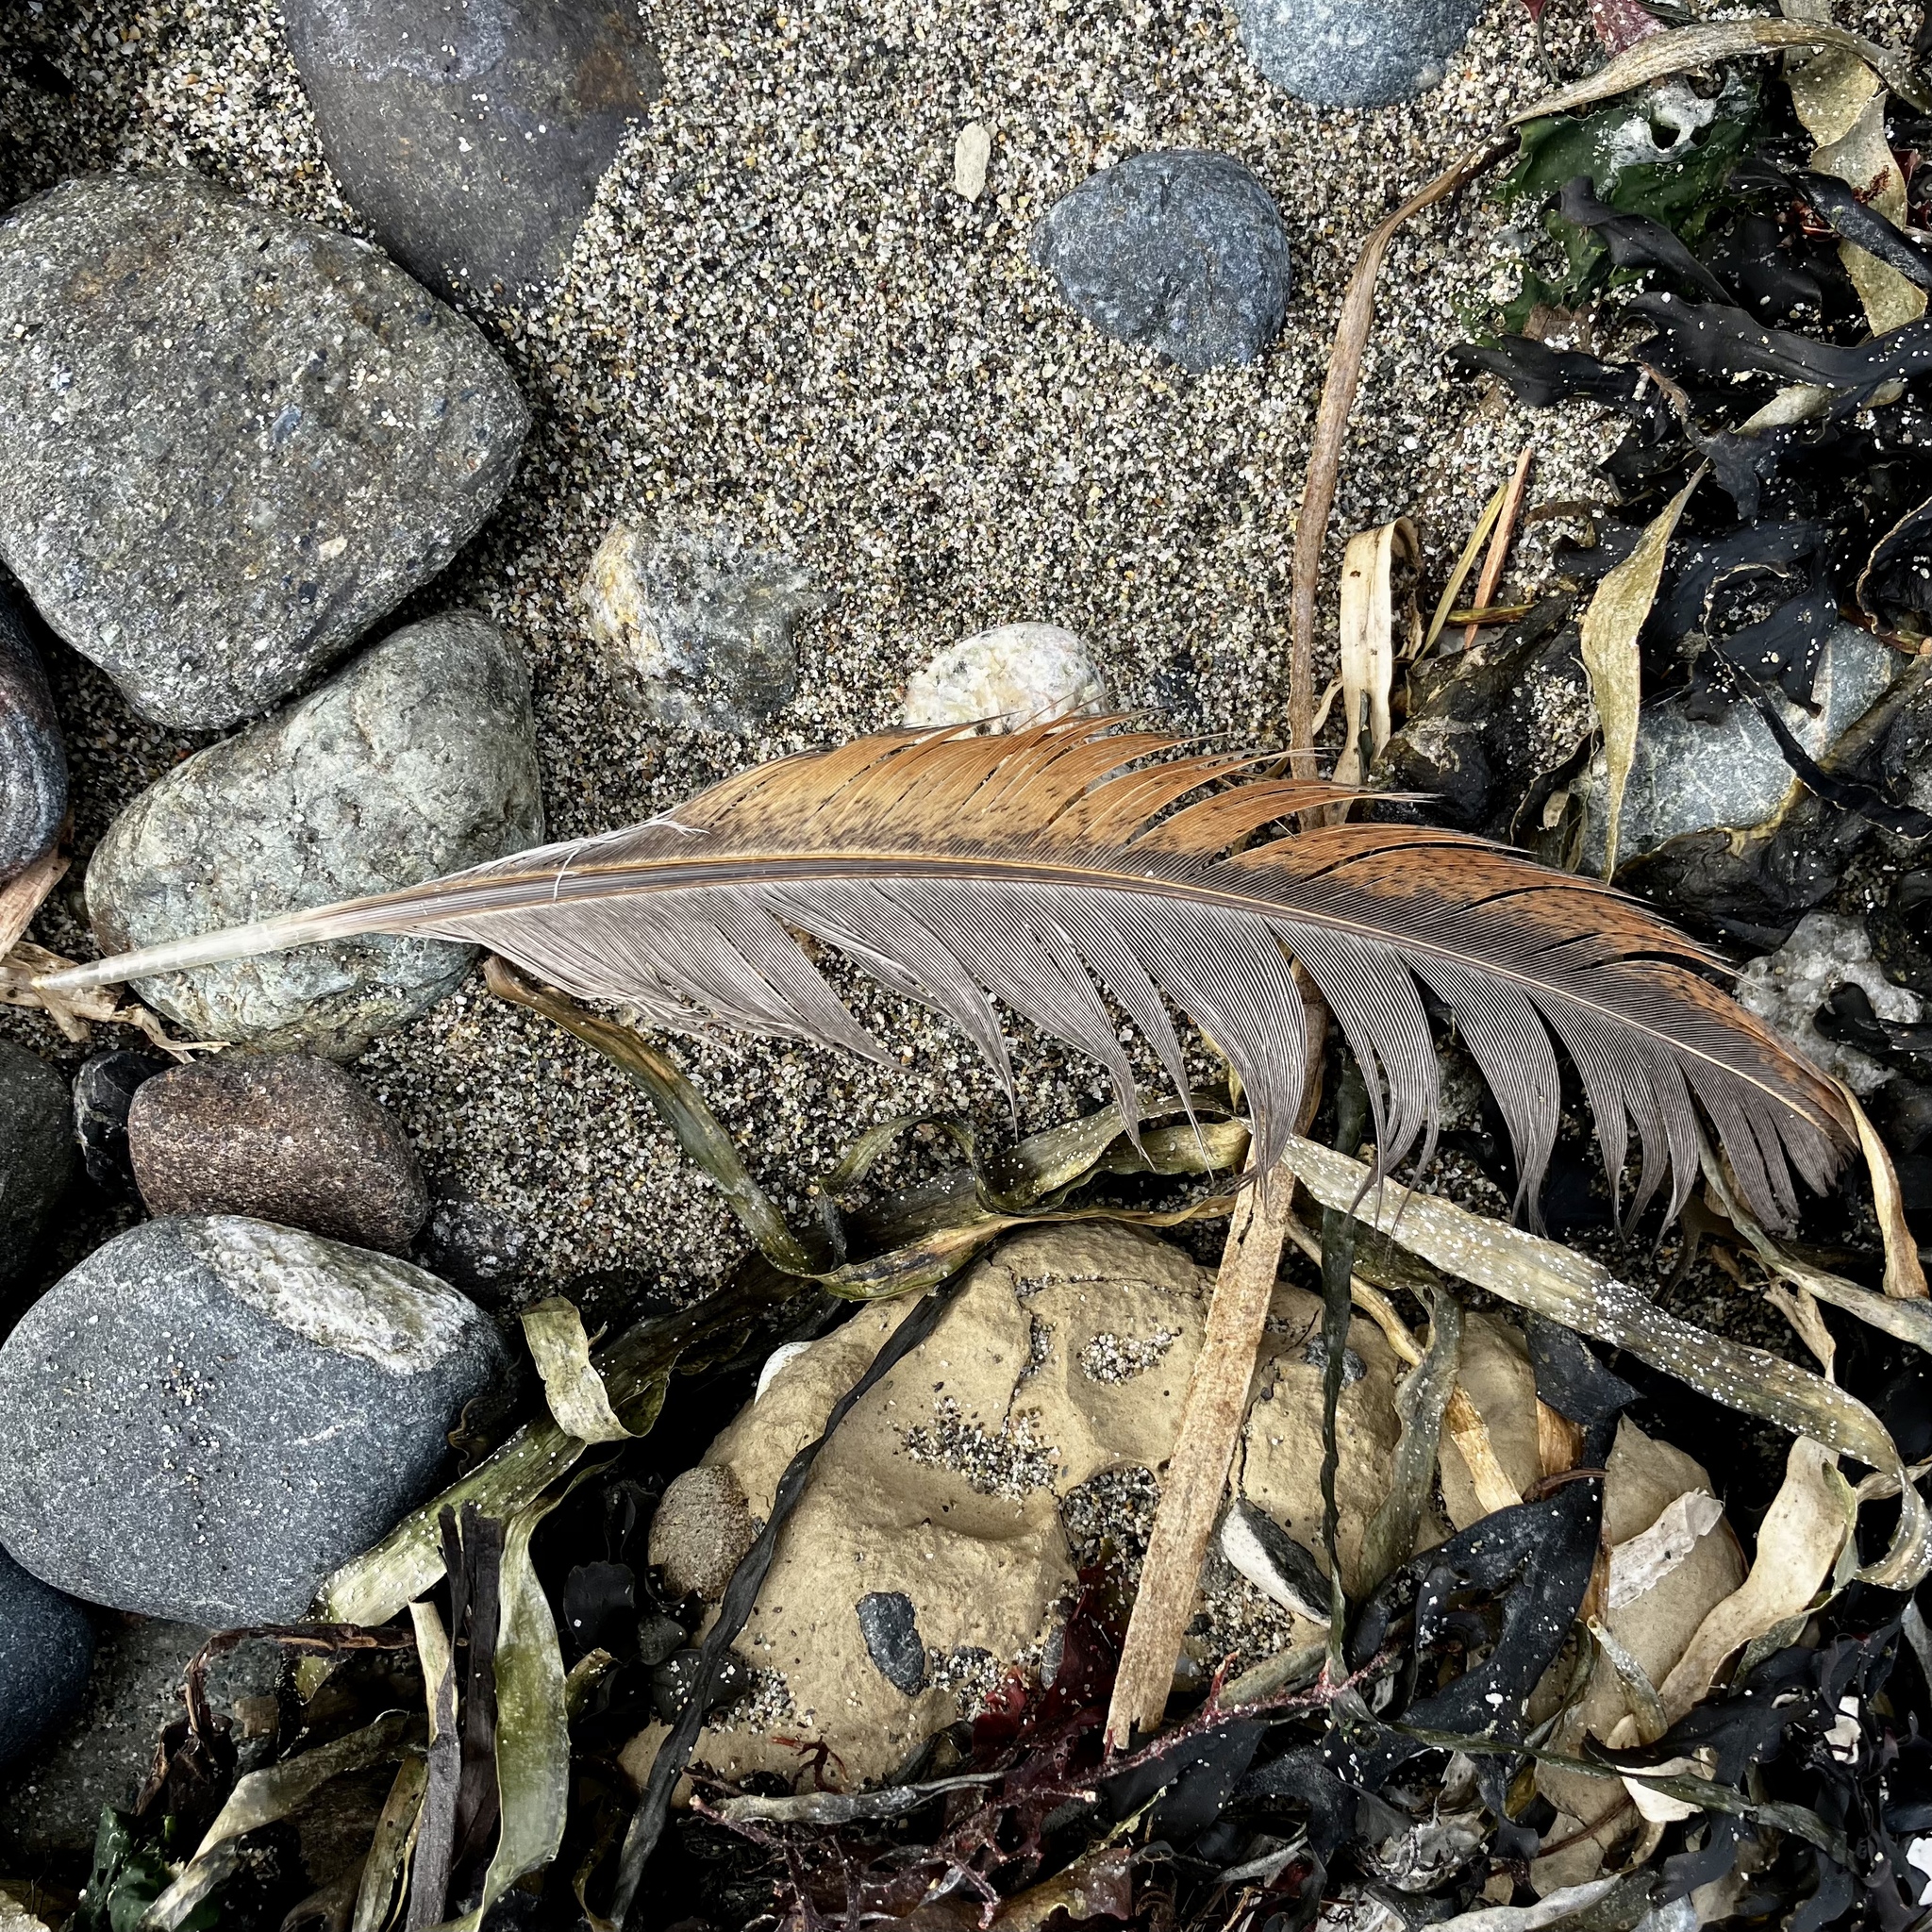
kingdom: Animalia
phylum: Chordata
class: Aves
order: Galliformes
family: Phasianidae
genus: Gallus
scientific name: Gallus gallus
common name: Red junglefowl
